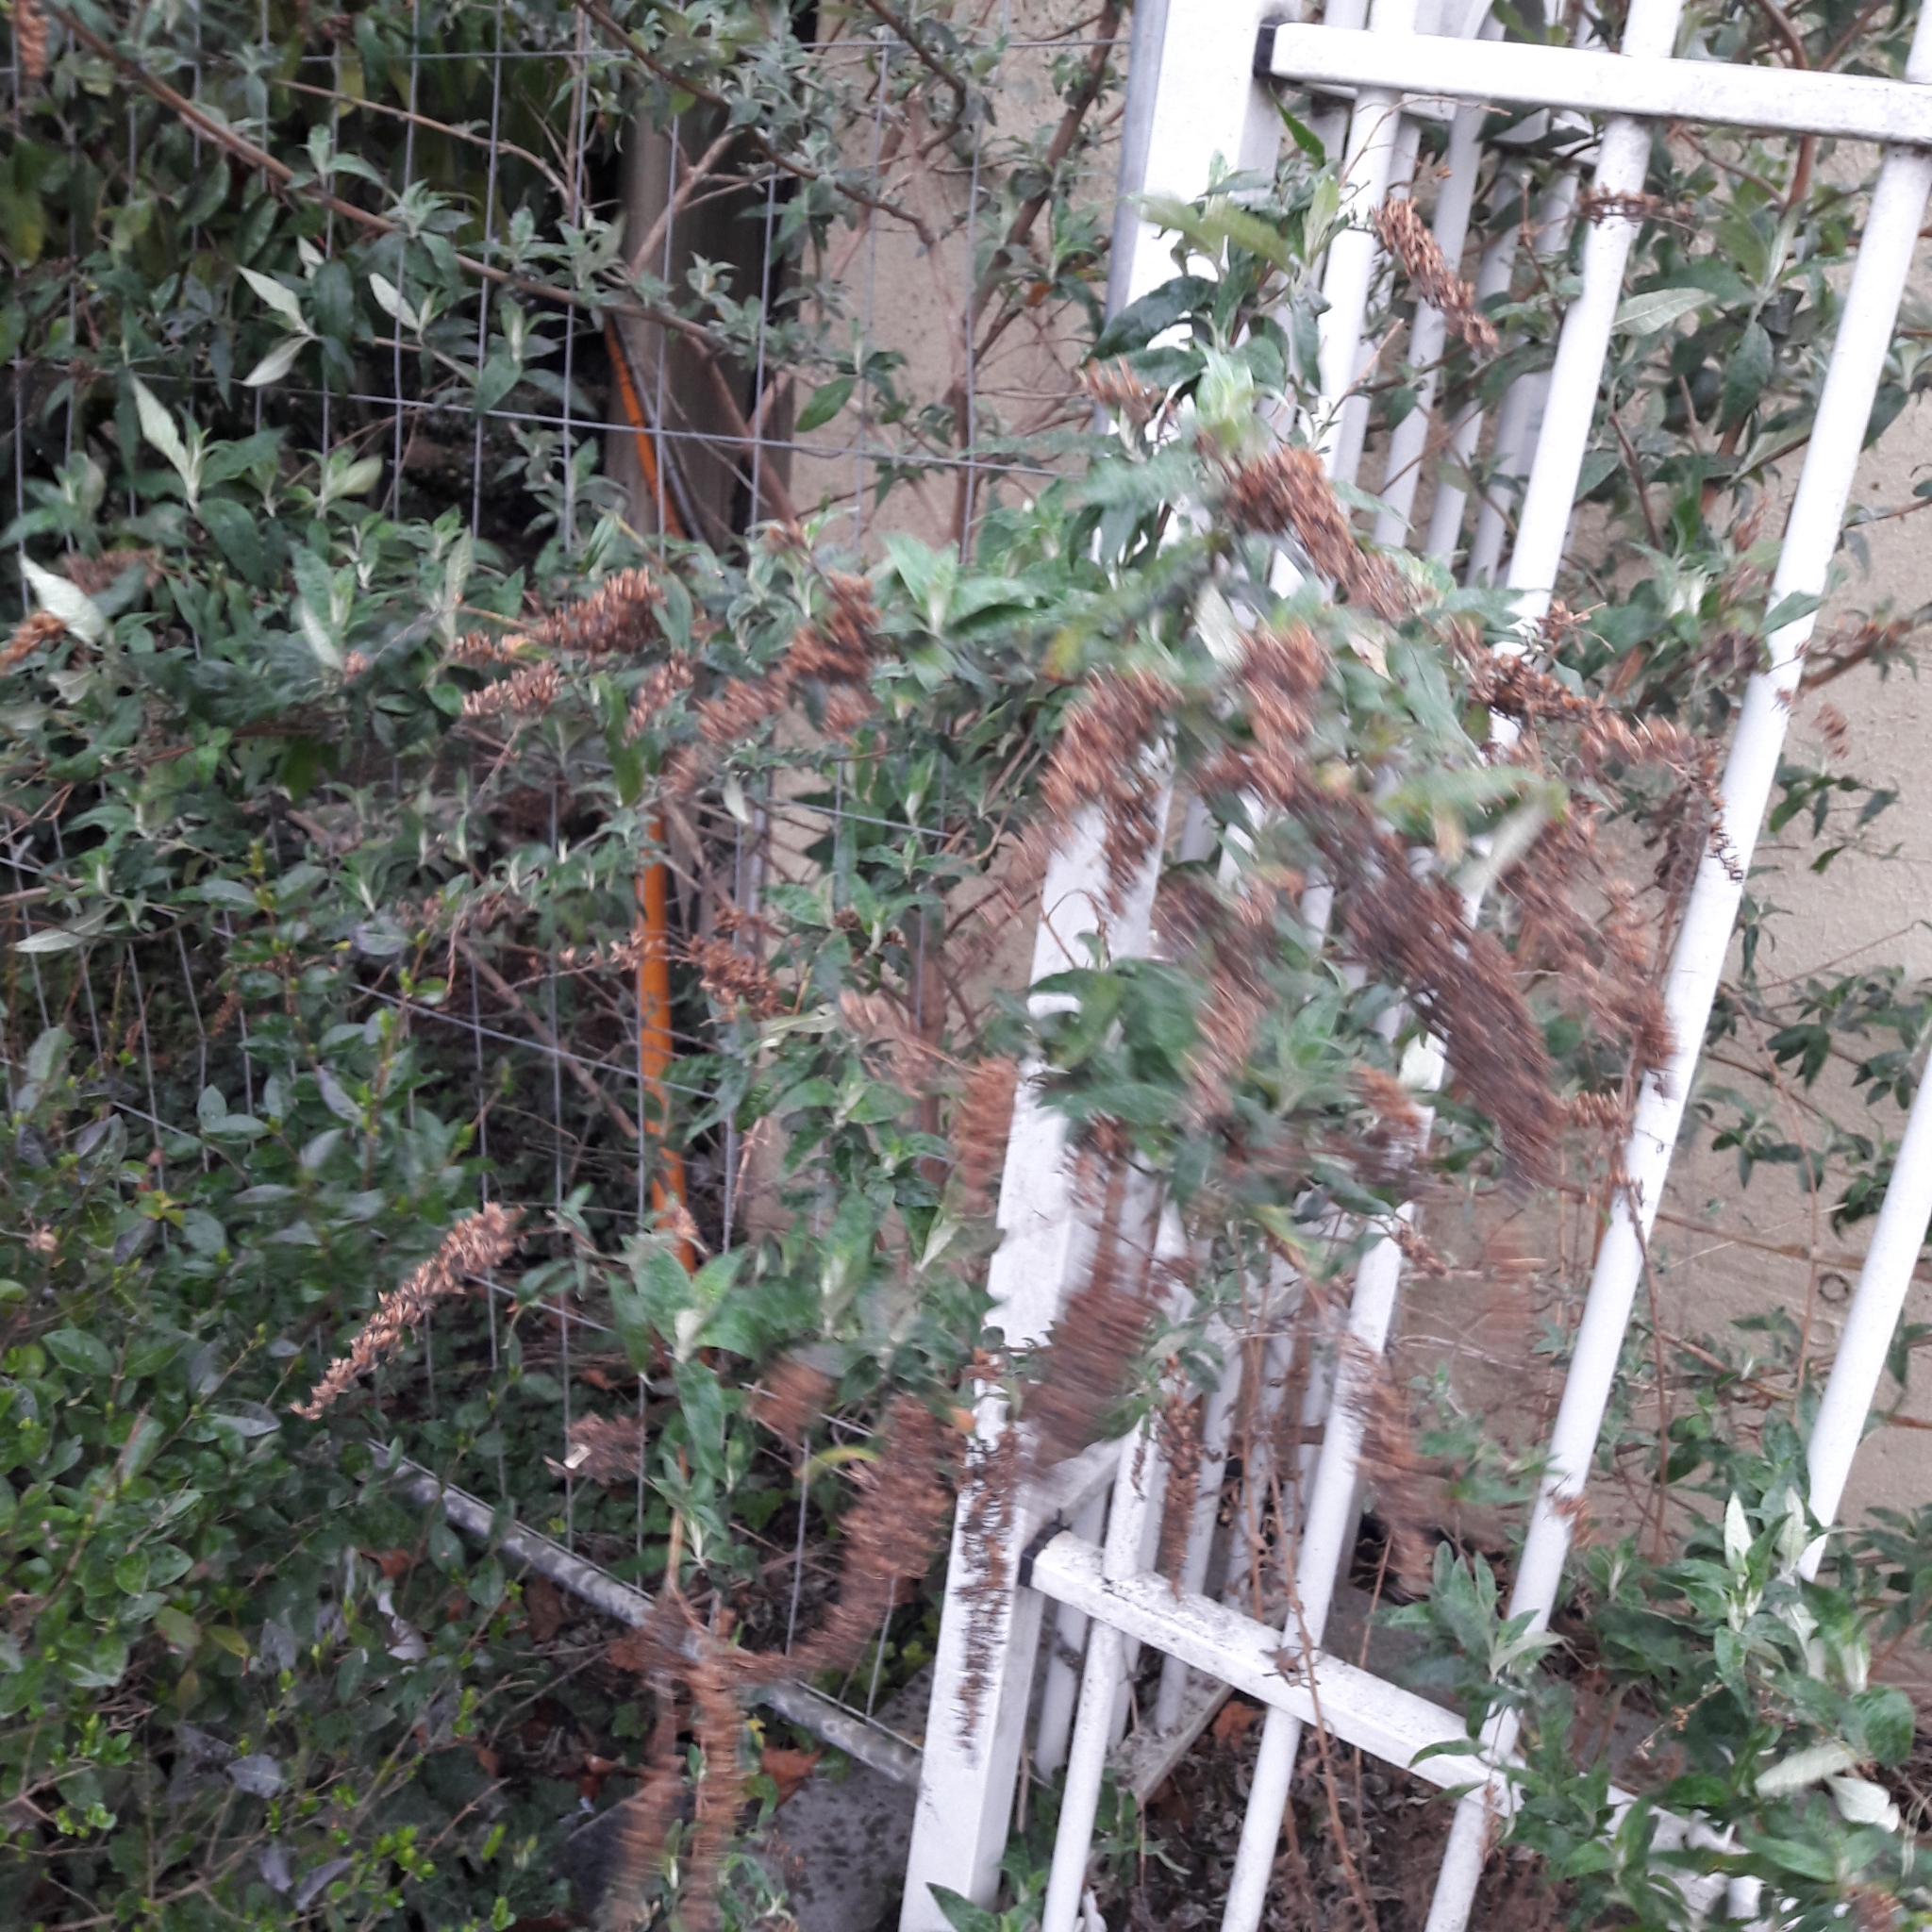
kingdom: Plantae
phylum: Tracheophyta
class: Magnoliopsida
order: Lamiales
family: Scrophulariaceae
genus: Buddleja
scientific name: Buddleja davidii
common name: Butterfly-bush
